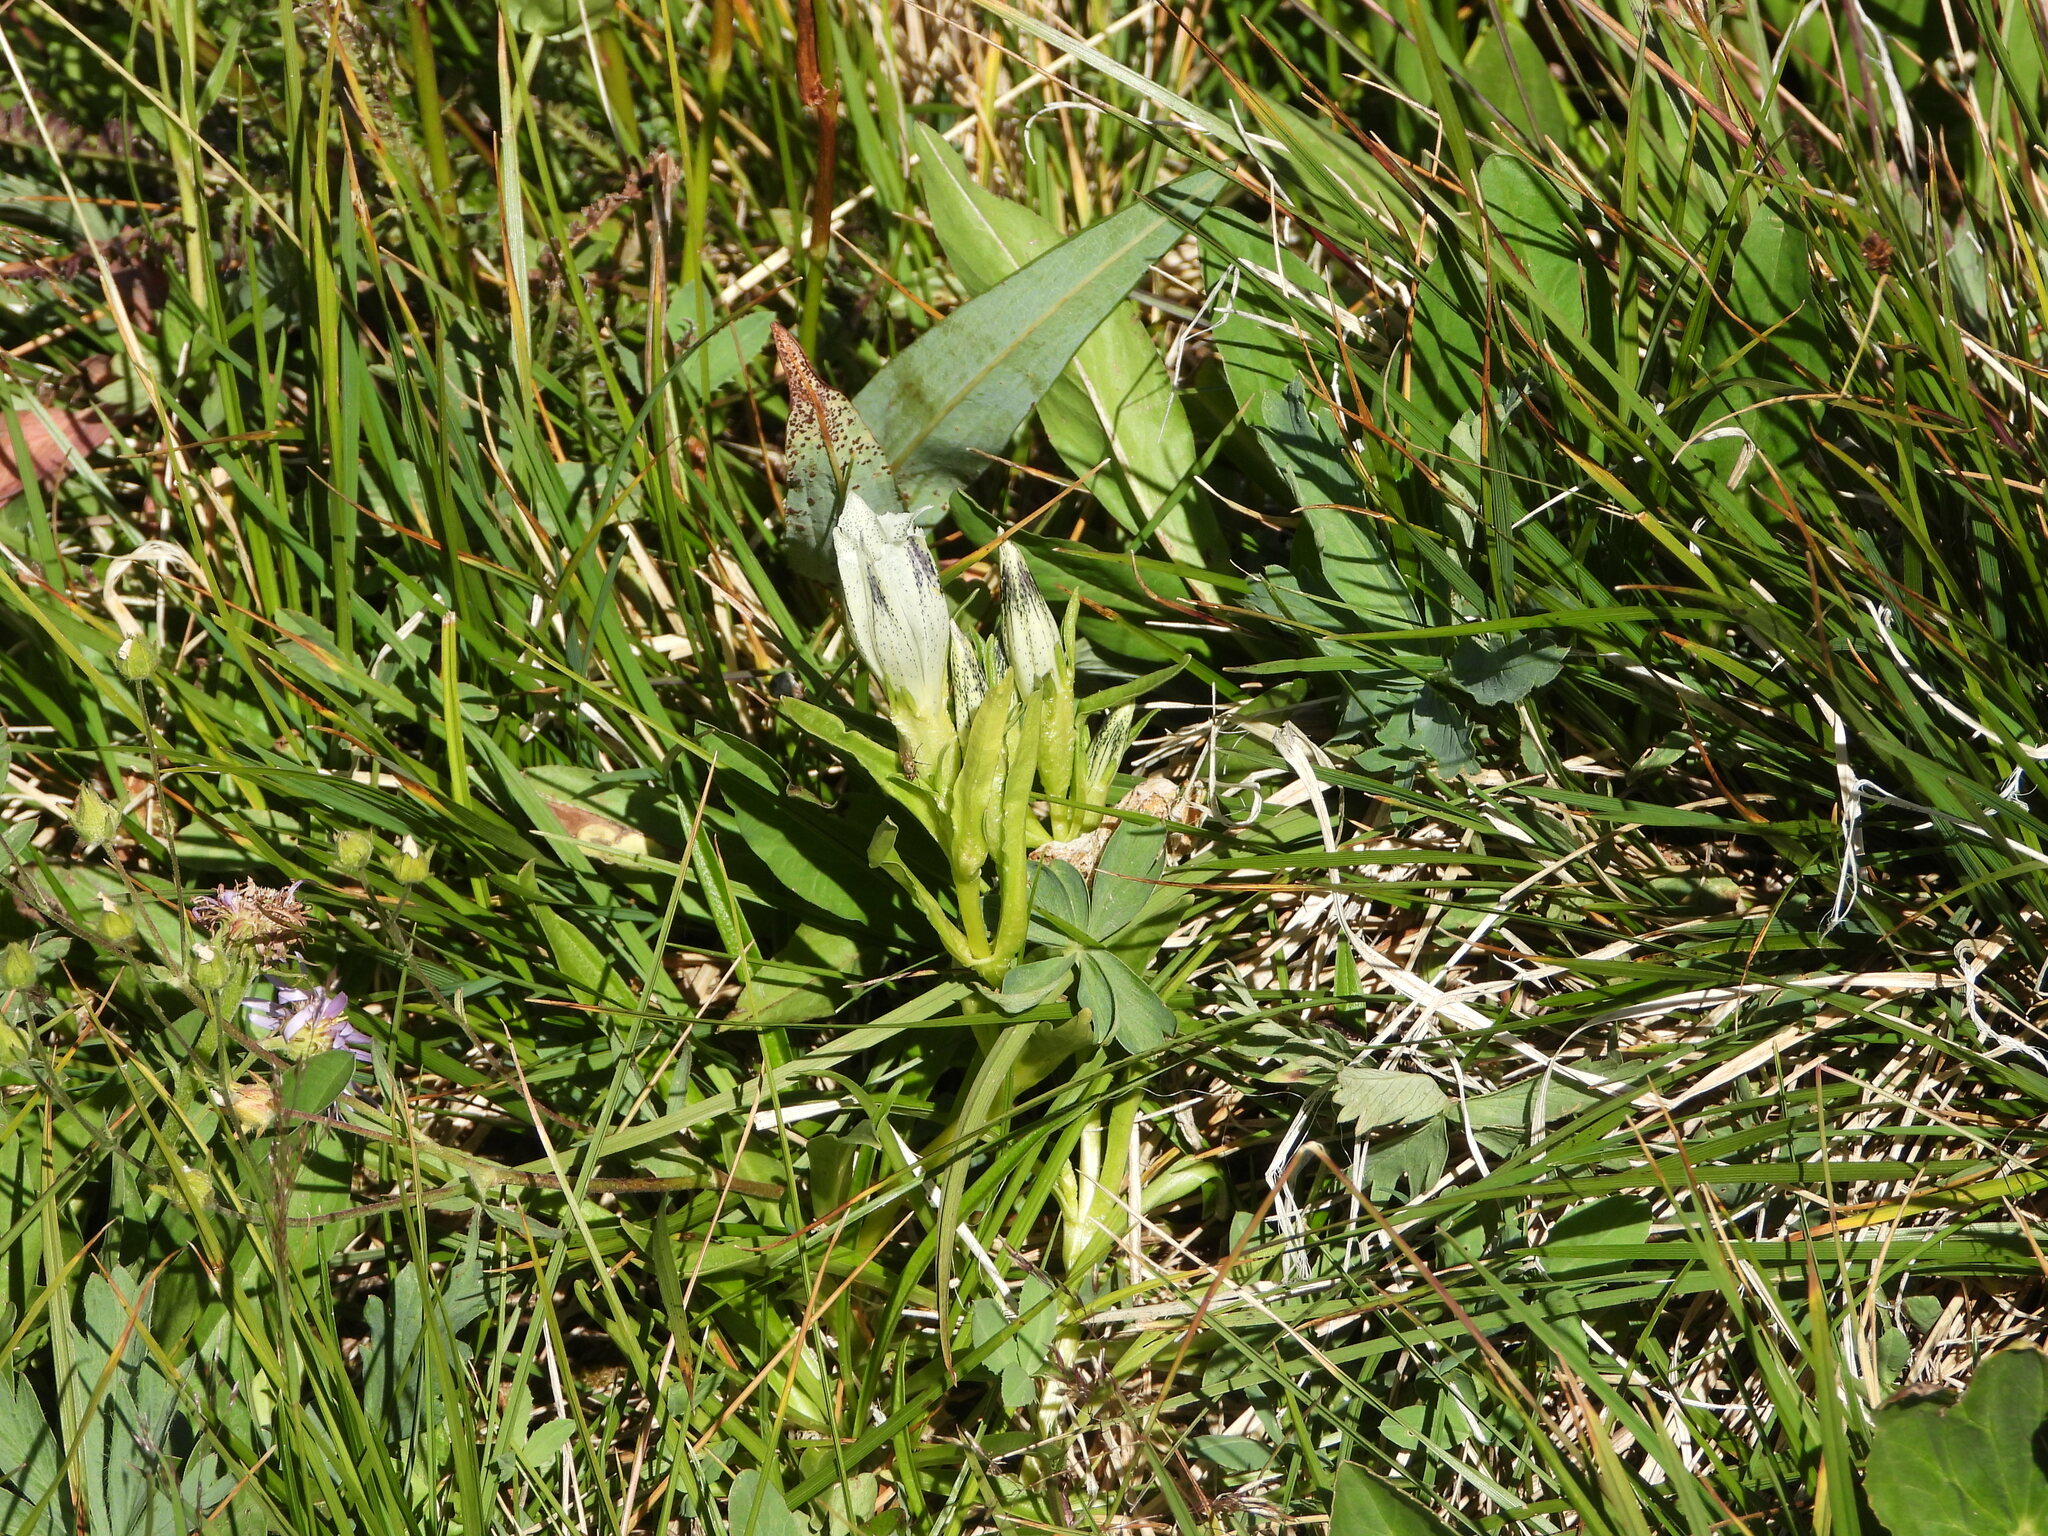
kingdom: Plantae
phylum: Tracheophyta
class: Magnoliopsida
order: Gentianales
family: Gentianaceae
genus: Gentiana
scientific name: Gentiana algida
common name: Arctic gentian
